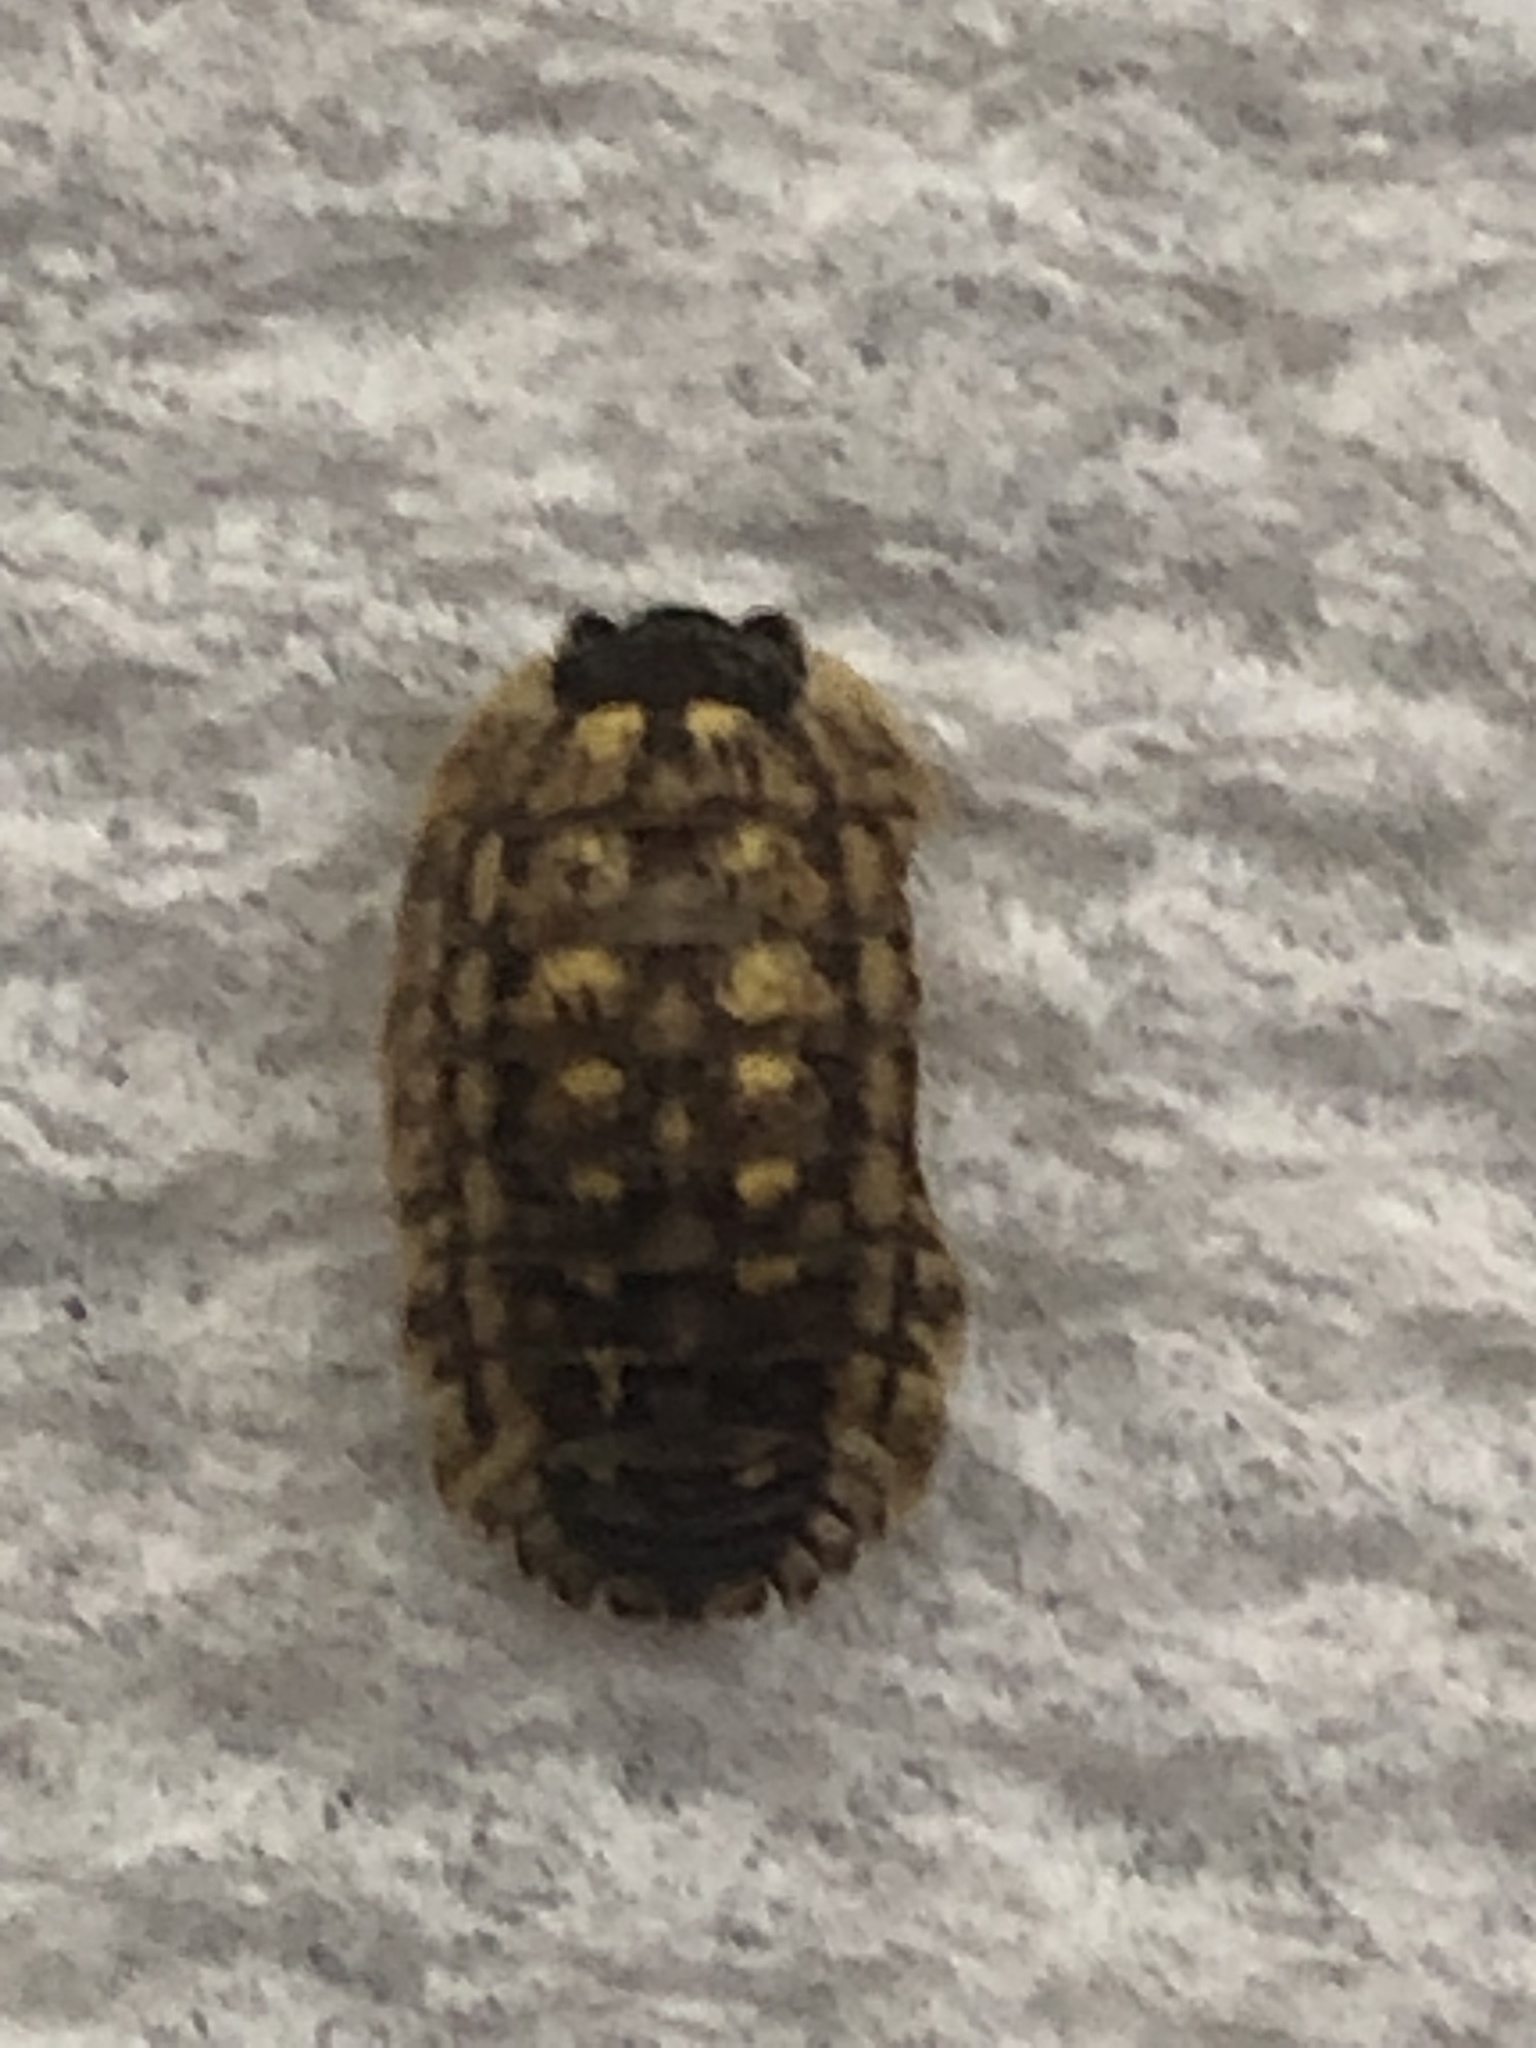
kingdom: Animalia
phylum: Arthropoda
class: Malacostraca
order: Isopoda
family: Porcellionidae
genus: Porcellio
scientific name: Porcellio spinicornis
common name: Painted woodlouse
